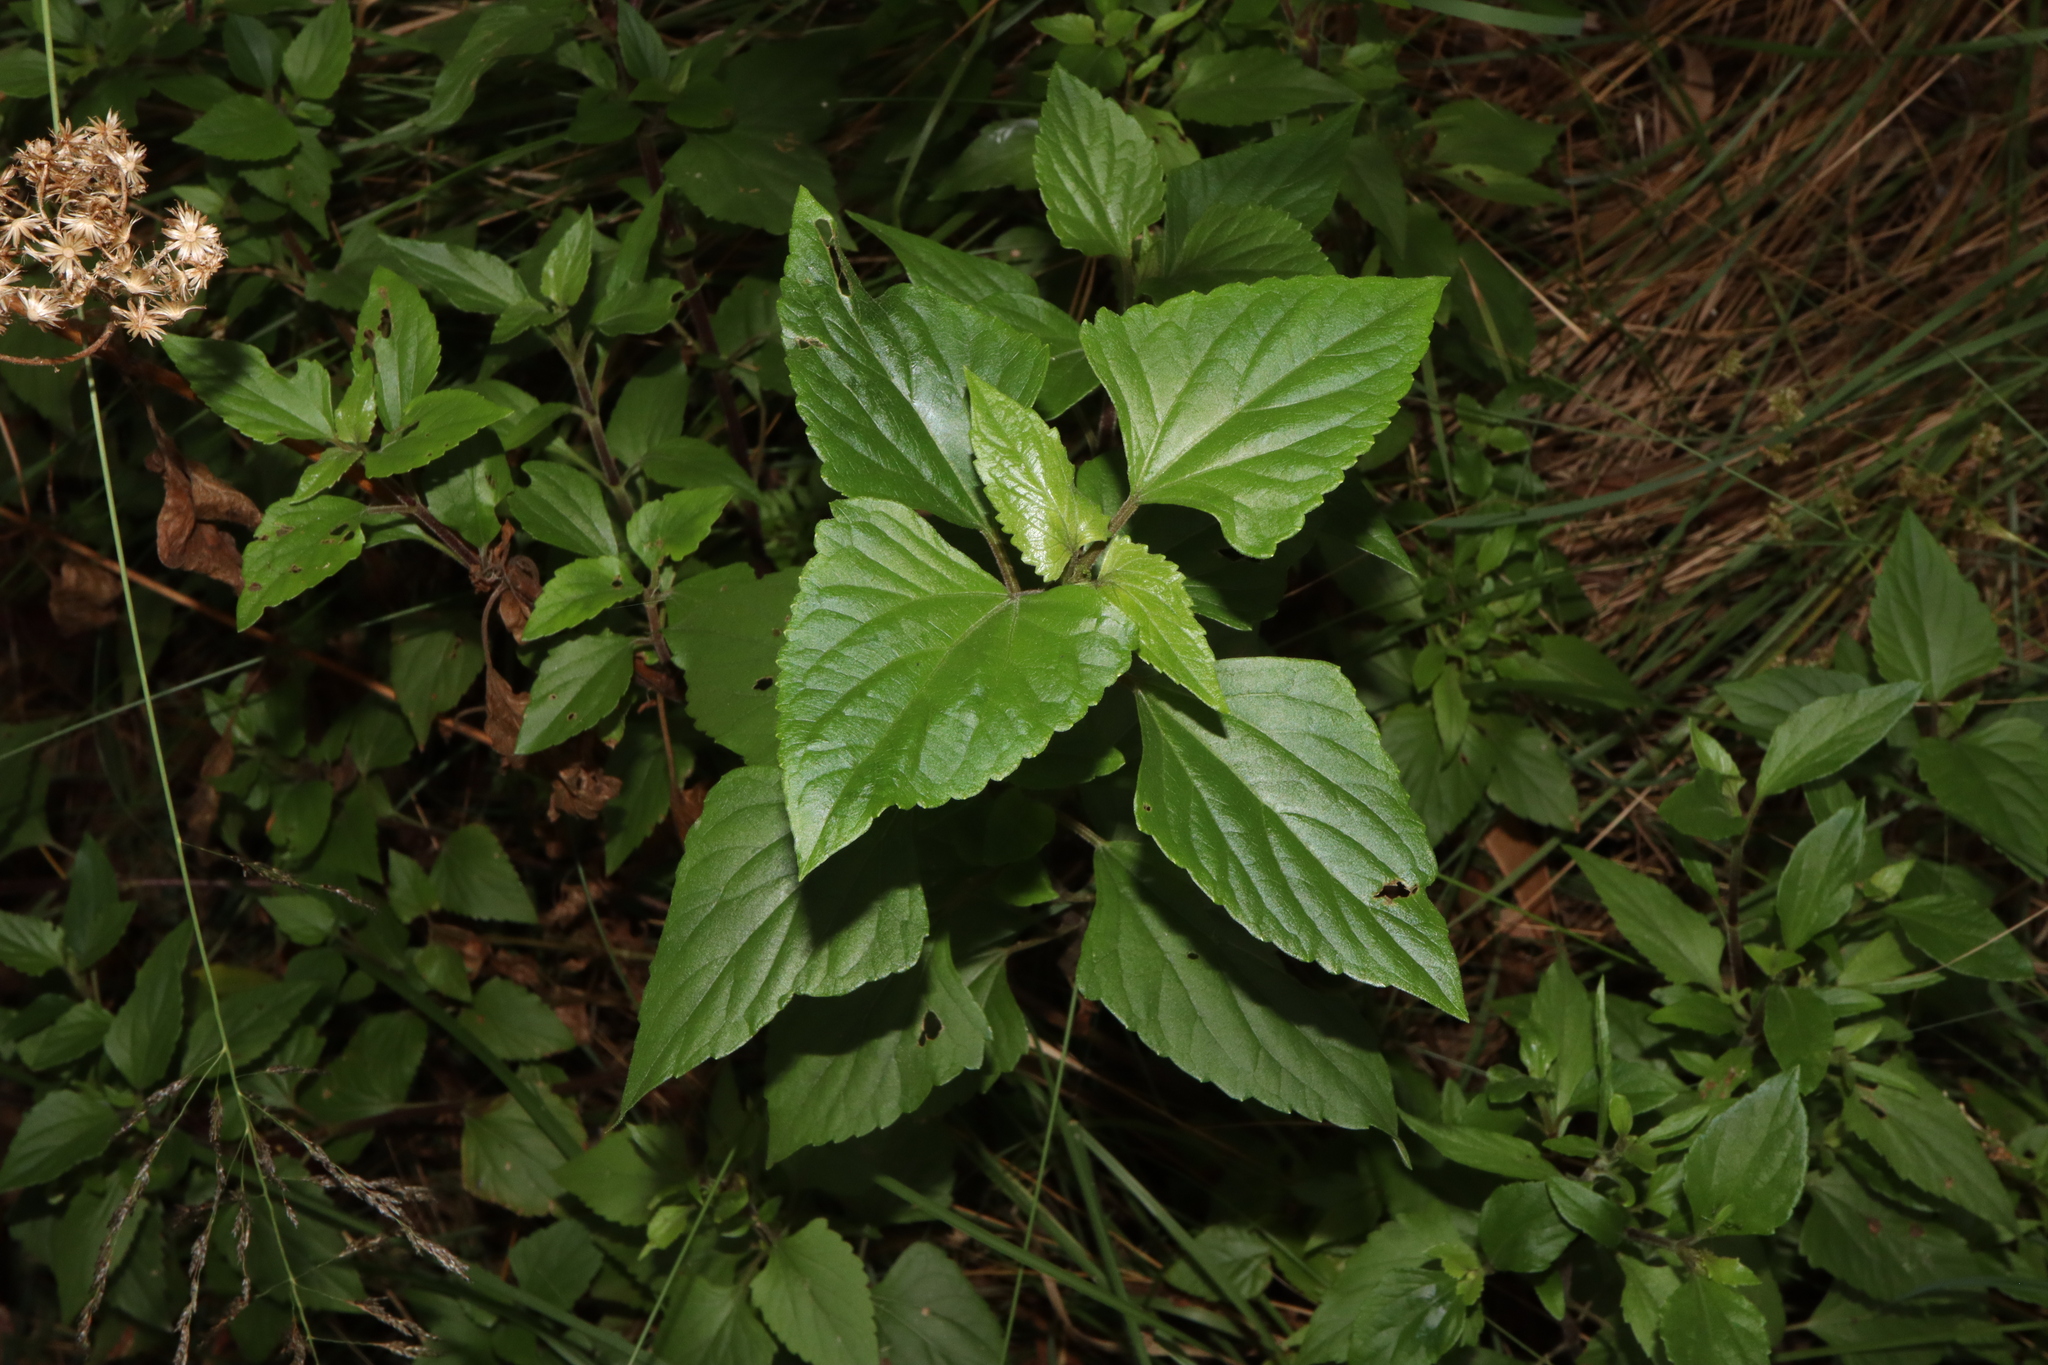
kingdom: Plantae
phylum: Tracheophyta
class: Magnoliopsida
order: Asterales
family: Asteraceae
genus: Ageratina
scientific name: Ageratina adenophora
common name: Sticky snakeroot
